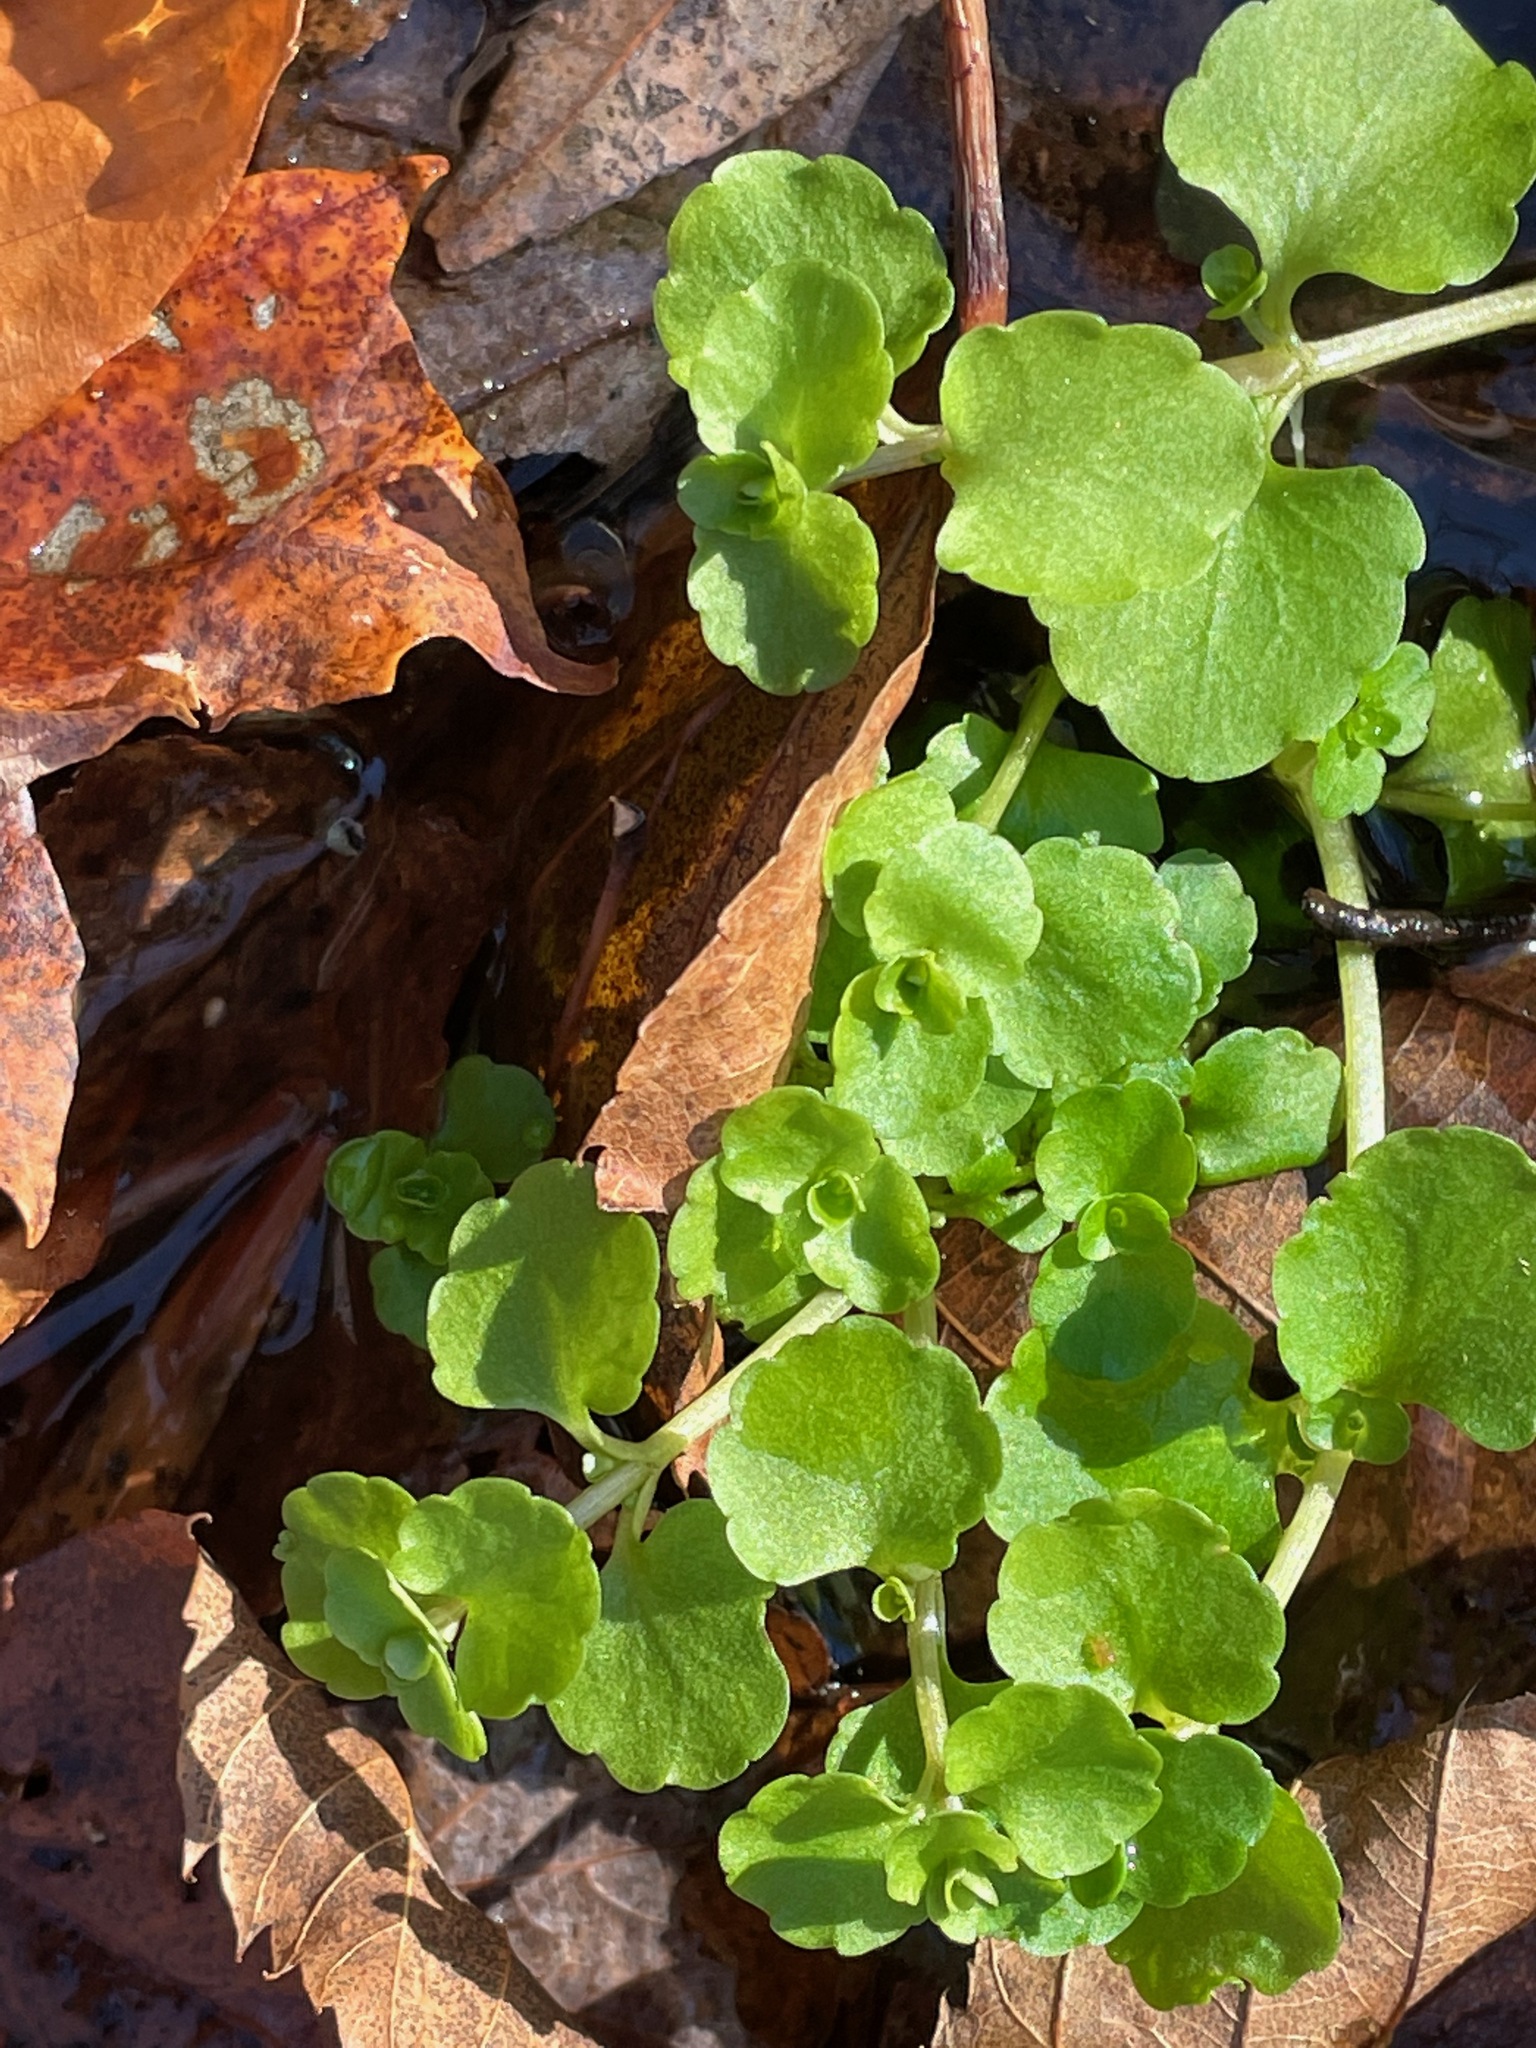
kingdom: Plantae
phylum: Tracheophyta
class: Magnoliopsida
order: Saxifragales
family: Saxifragaceae
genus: Chrysosplenium
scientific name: Chrysosplenium americanum
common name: American golden-saxifrage
